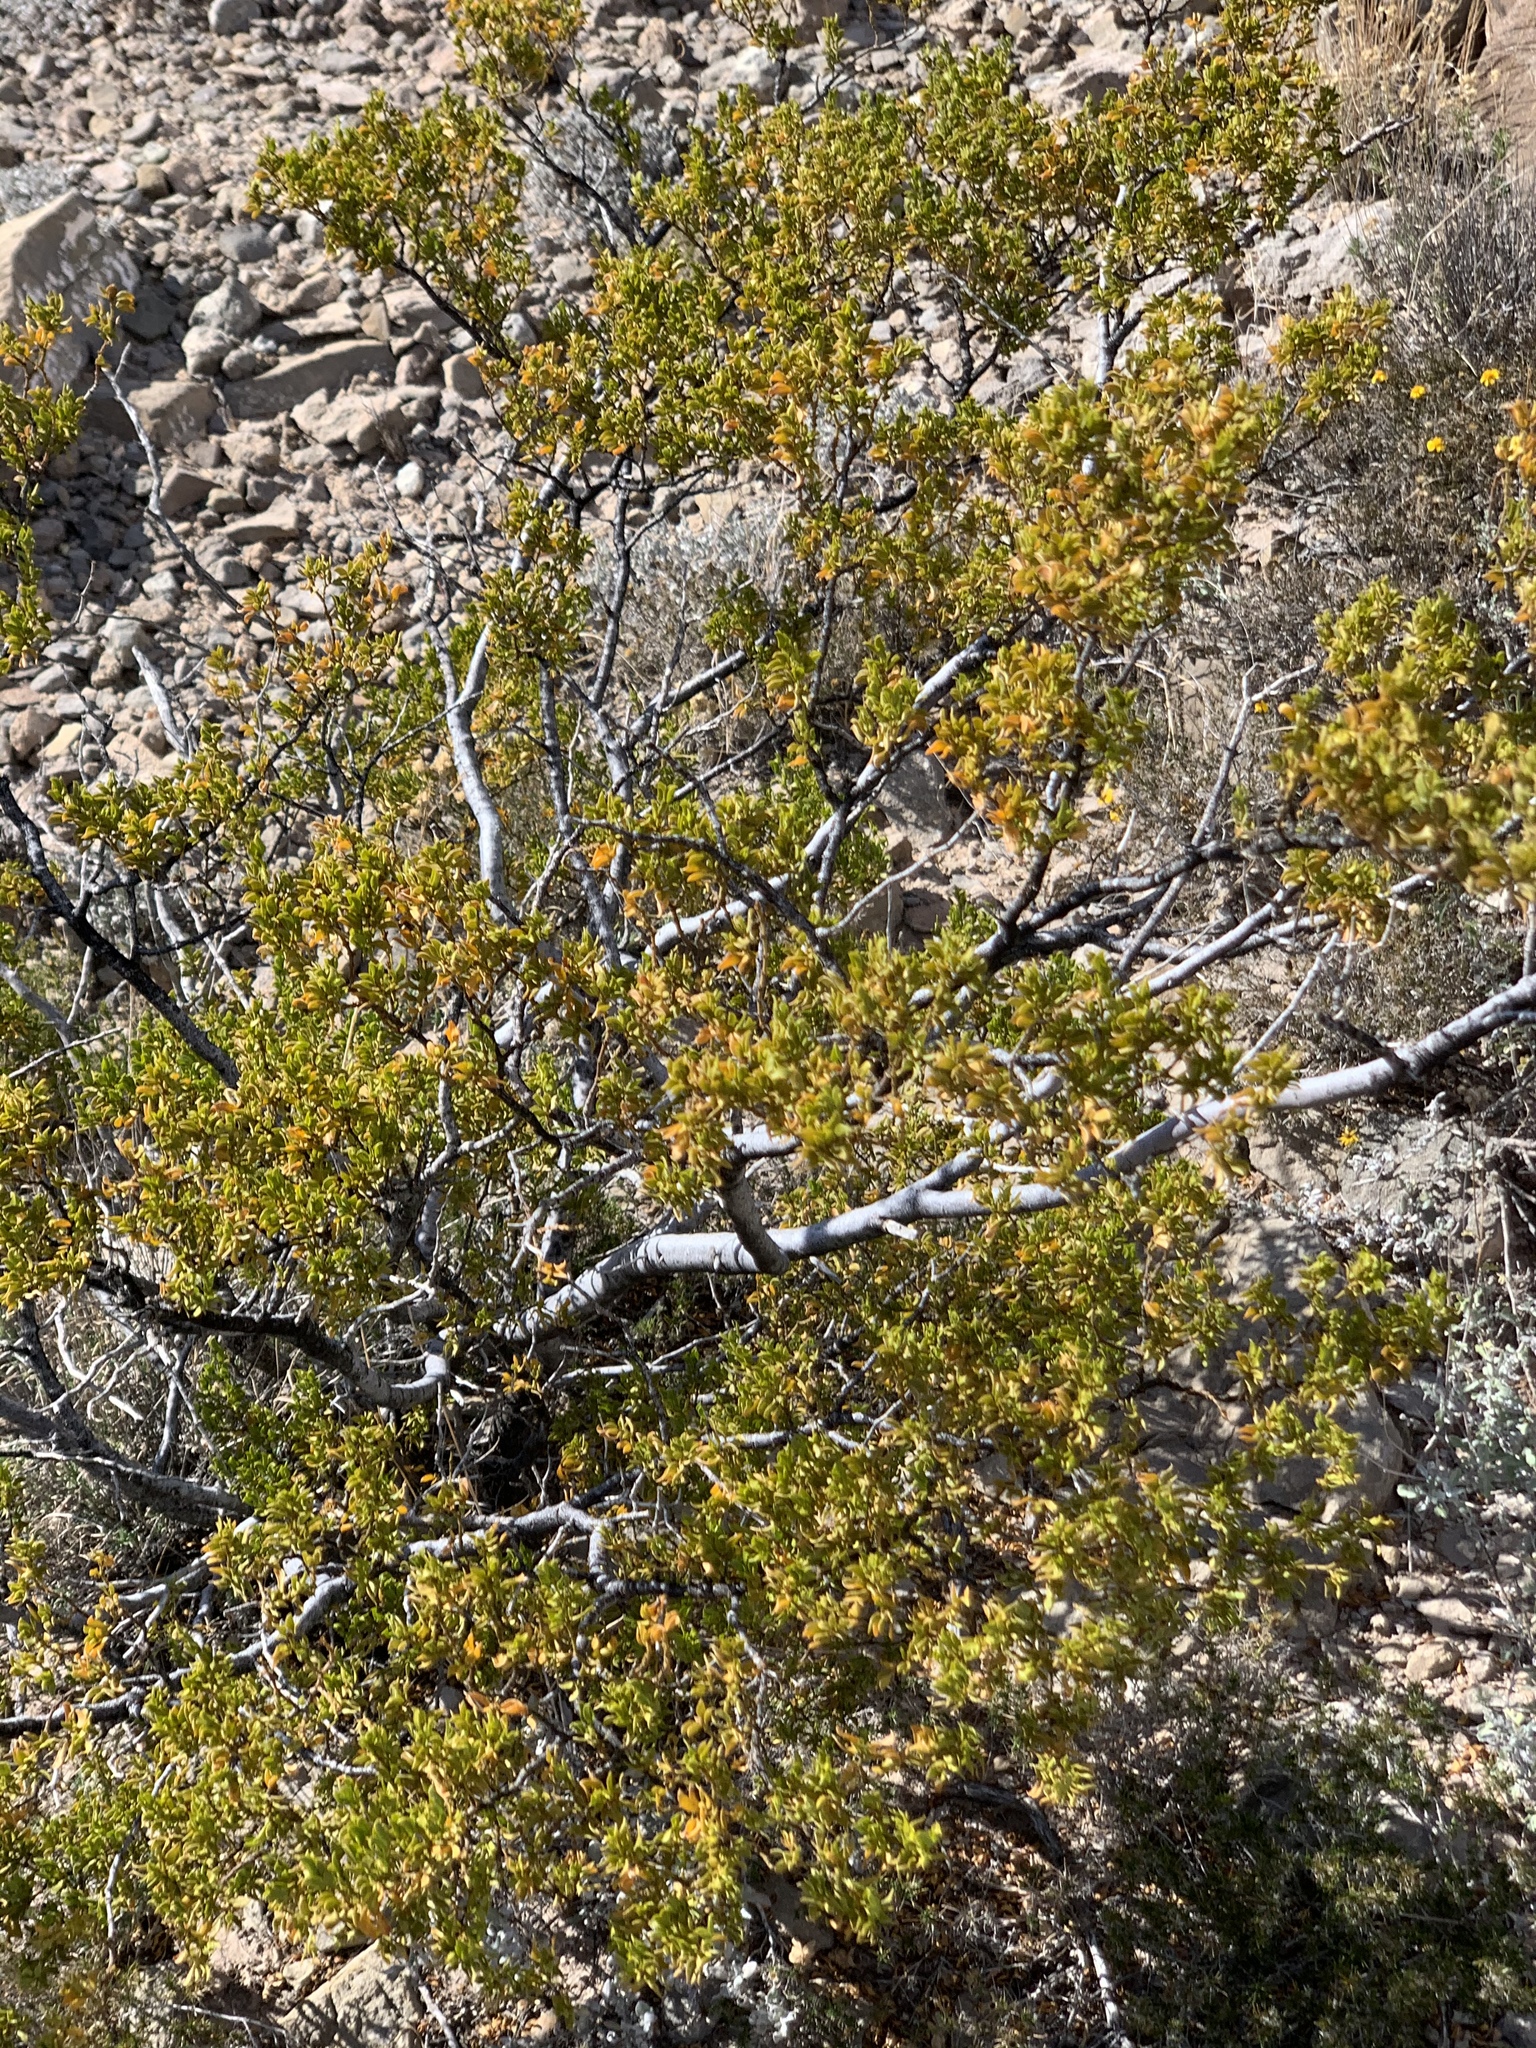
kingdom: Plantae
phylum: Tracheophyta
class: Magnoliopsida
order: Zygophyllales
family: Zygophyllaceae
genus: Larrea
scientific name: Larrea tridentata
